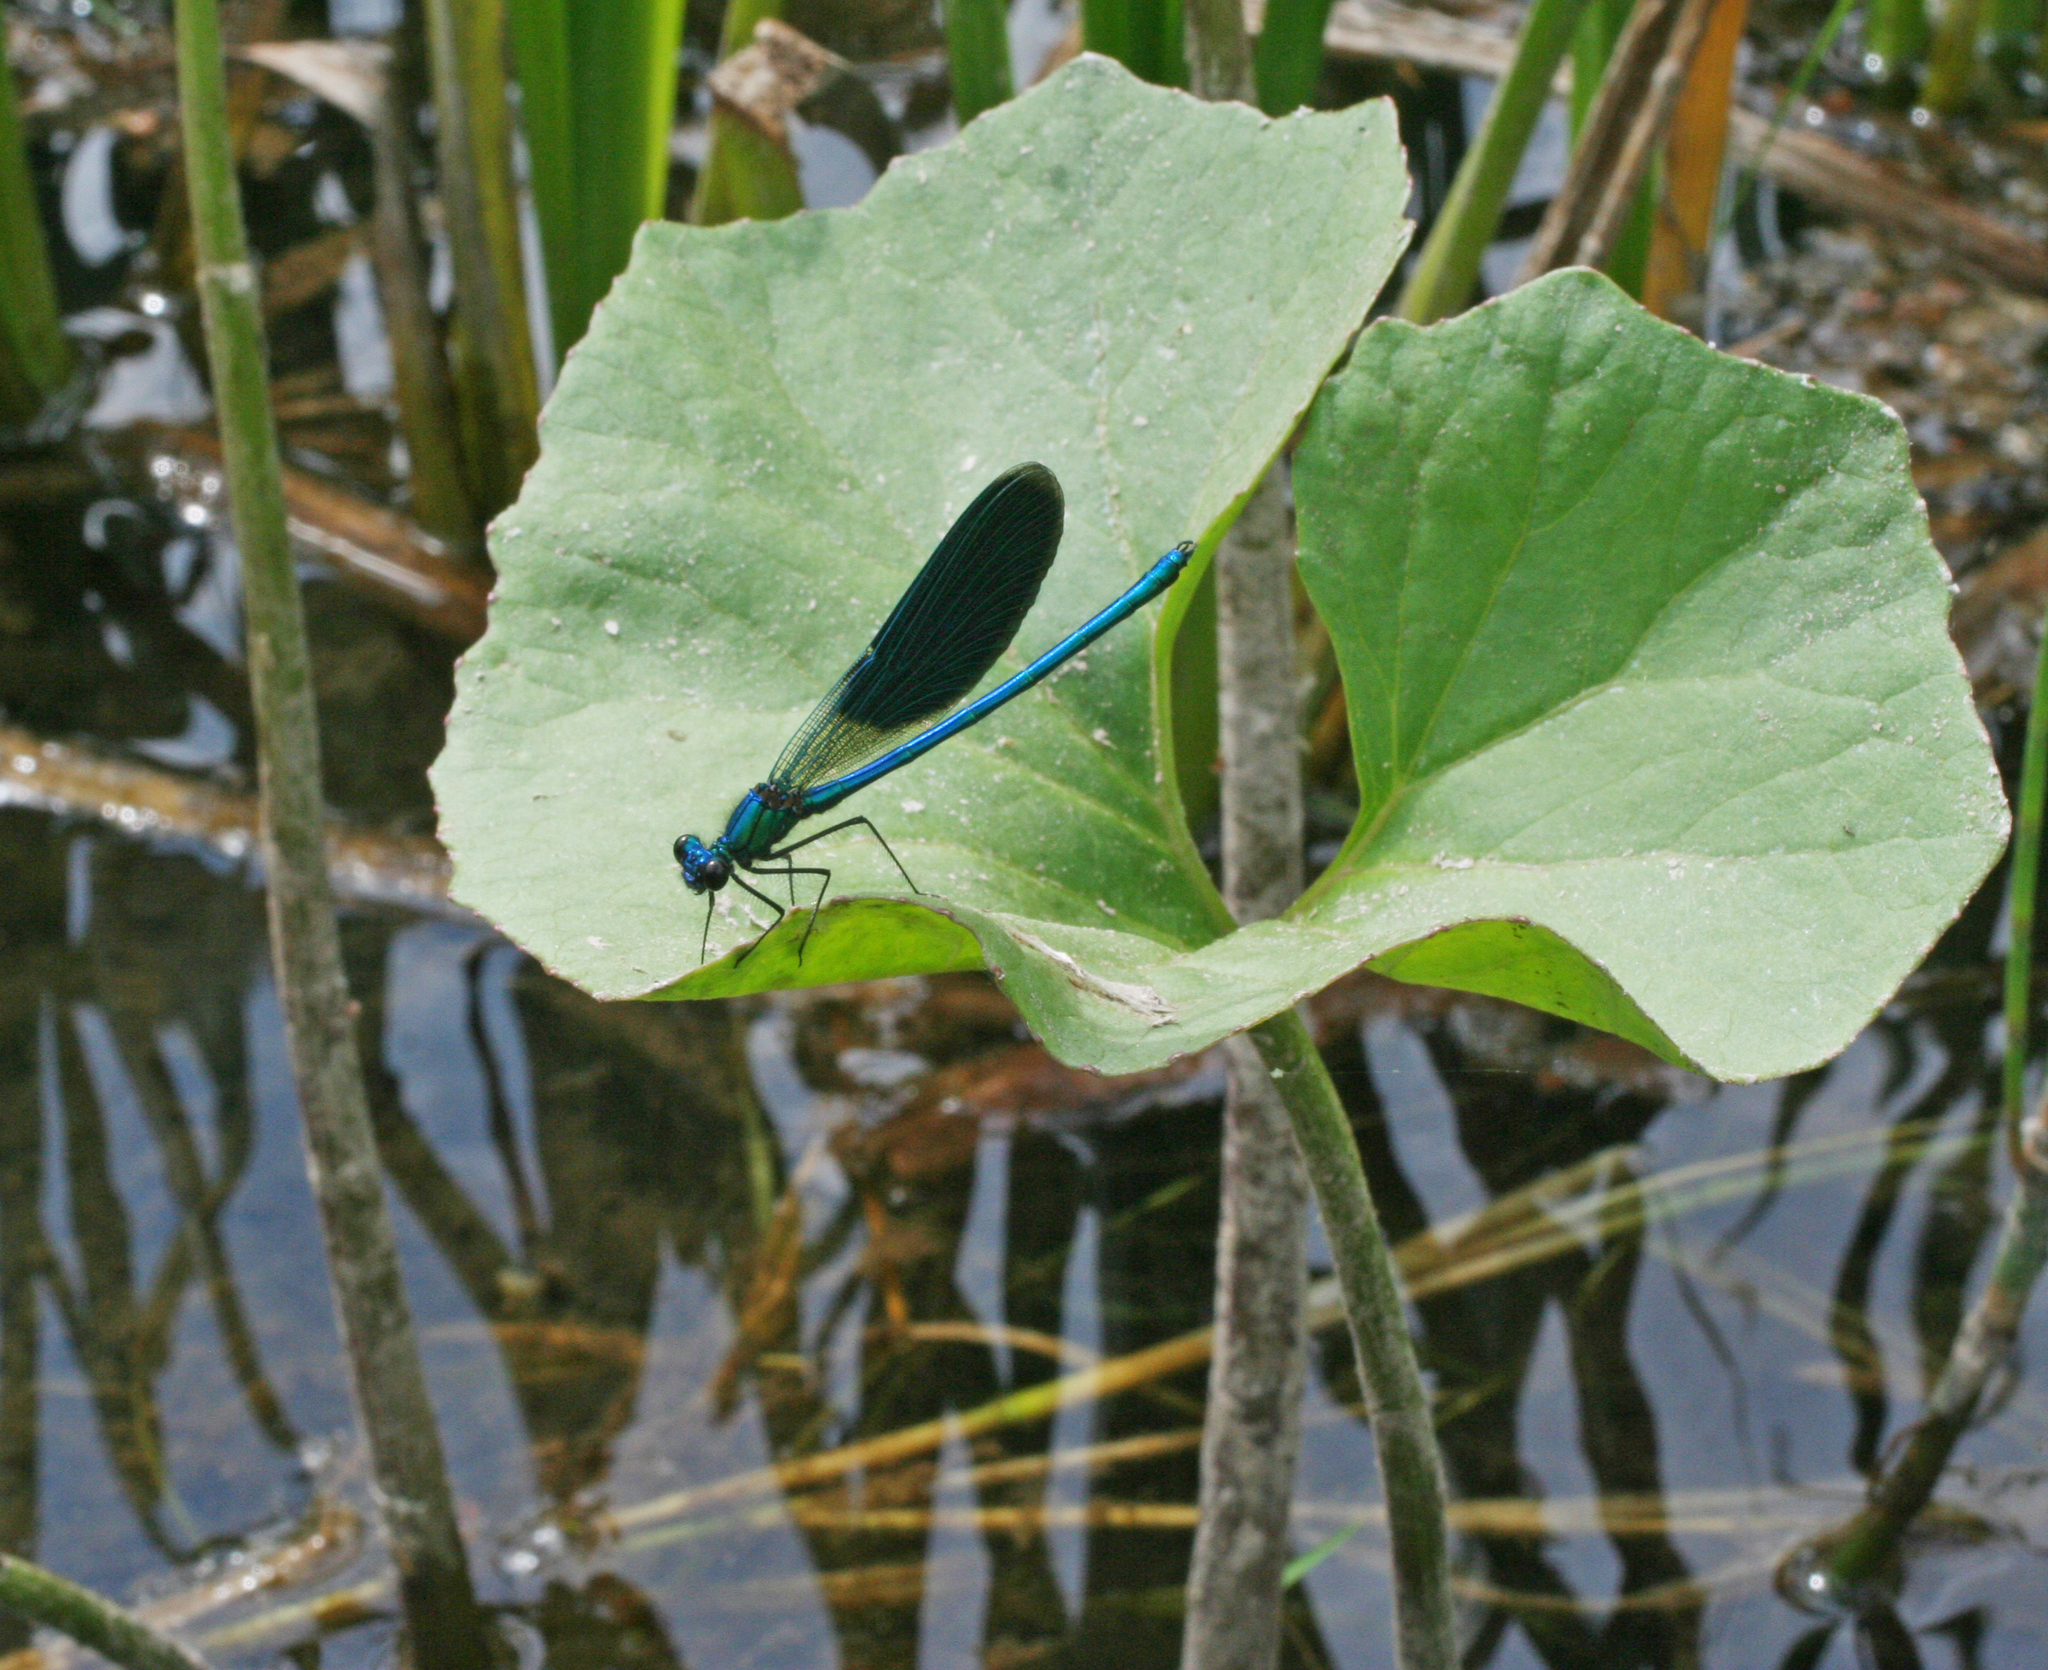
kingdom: Animalia
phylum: Arthropoda
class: Insecta
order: Odonata
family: Calopterygidae
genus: Calopteryx
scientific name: Calopteryx splendens
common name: Banded demoiselle
